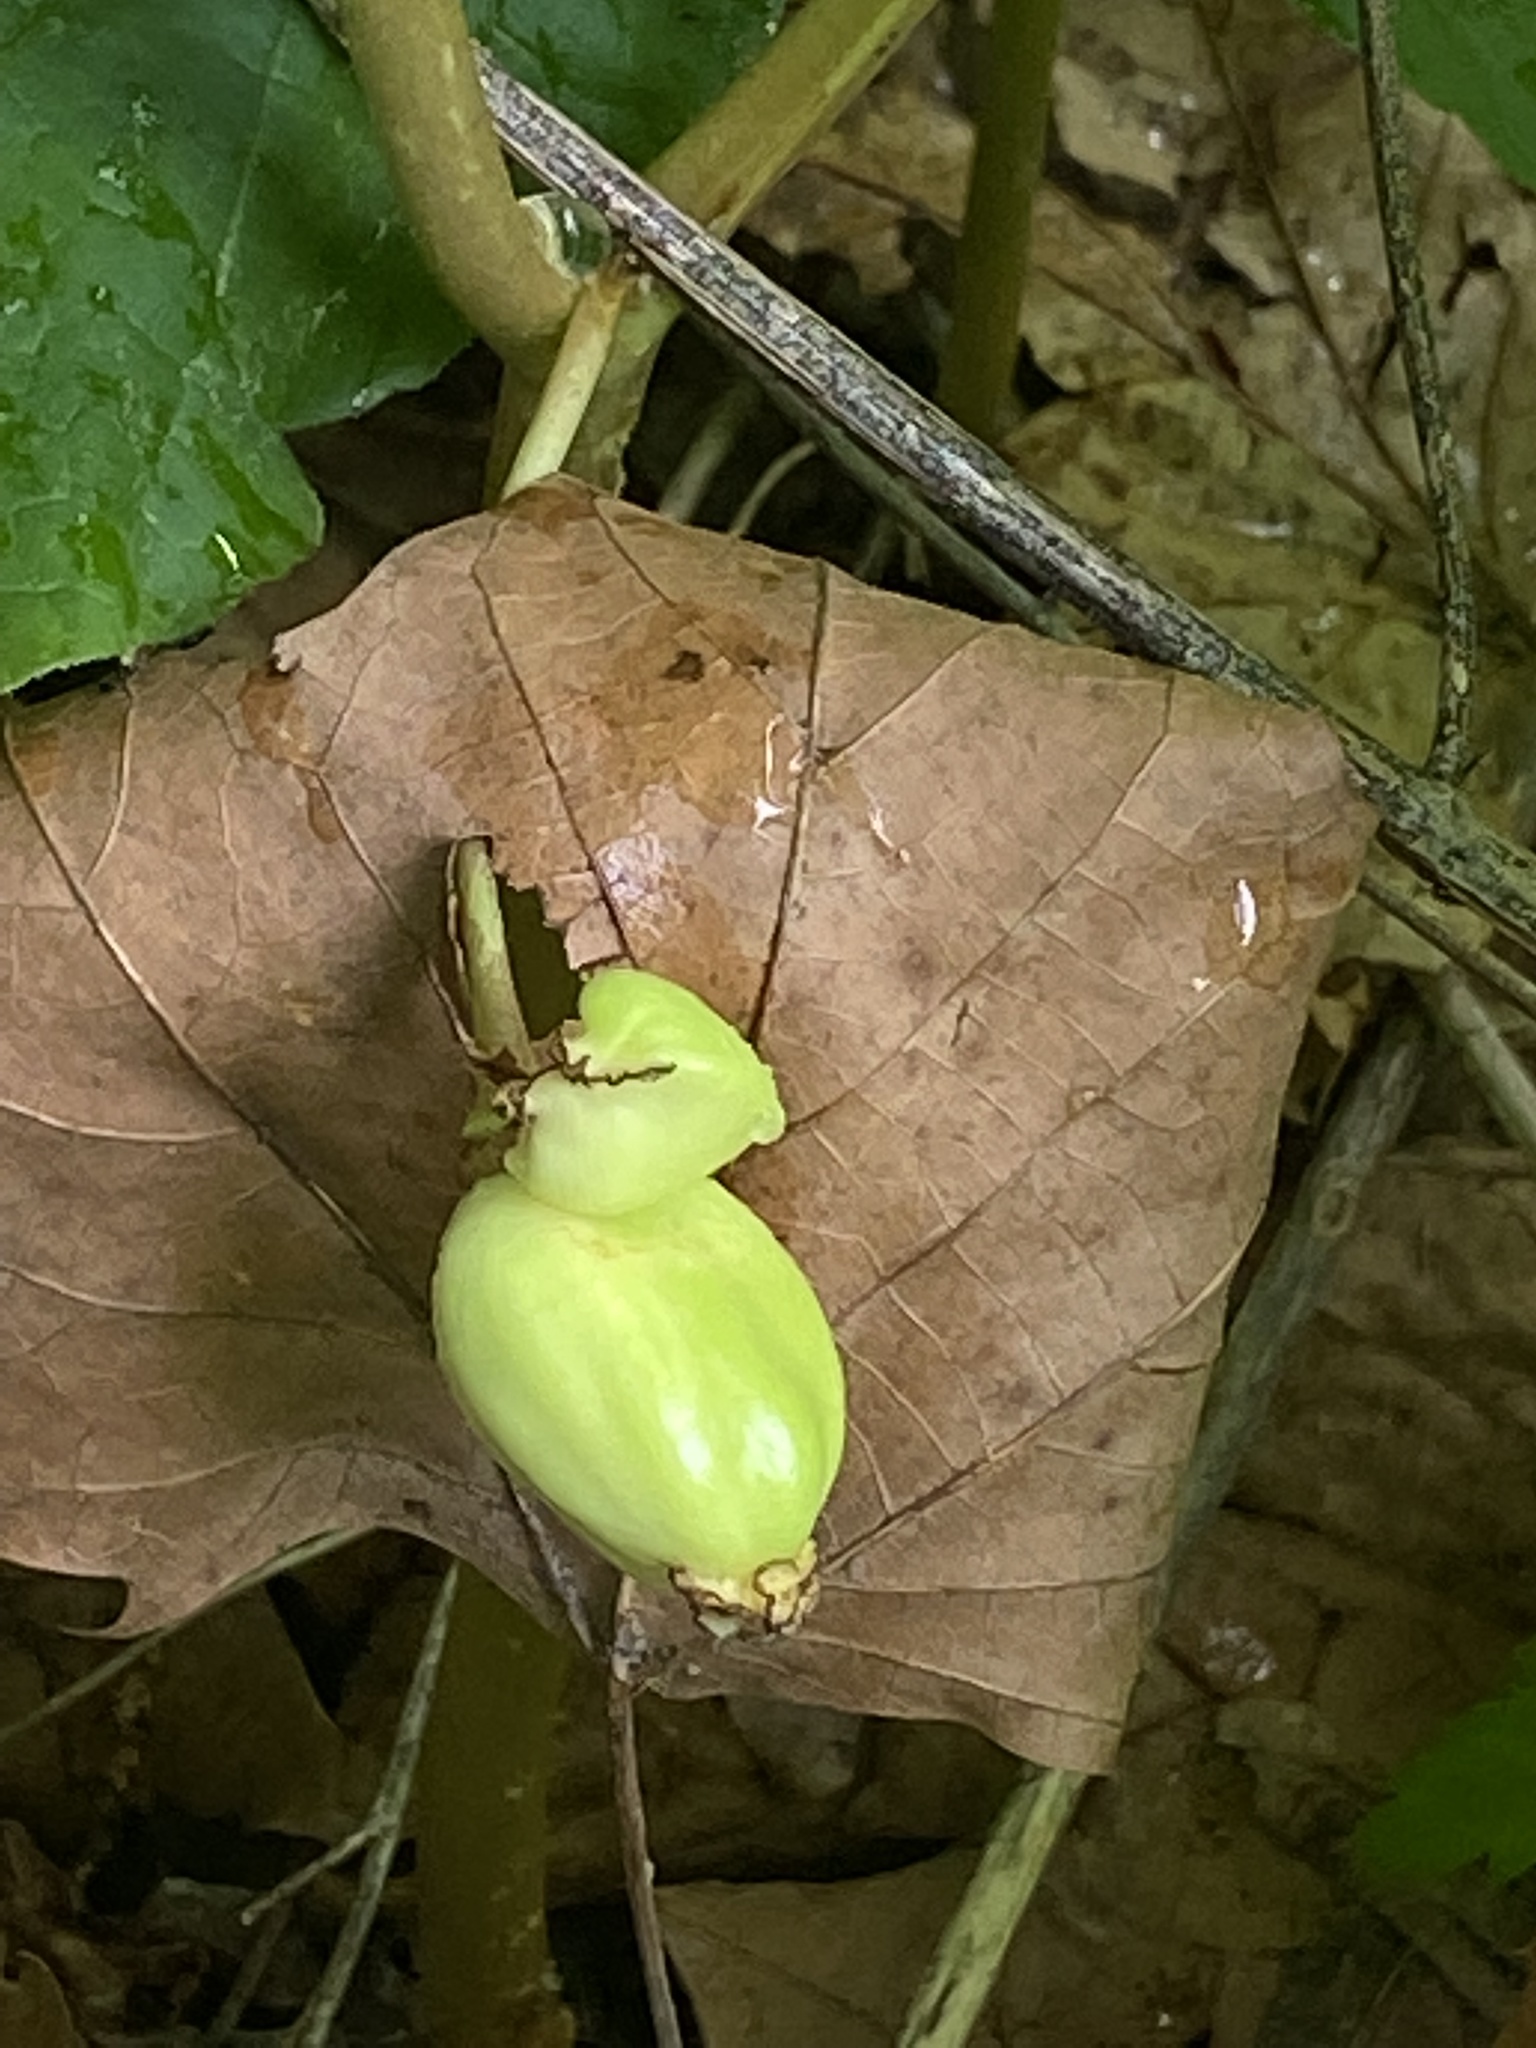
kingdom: Plantae
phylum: Tracheophyta
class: Magnoliopsida
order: Ranunculales
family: Berberidaceae
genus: Podophyllum
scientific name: Podophyllum peltatum
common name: Wild mandrake
